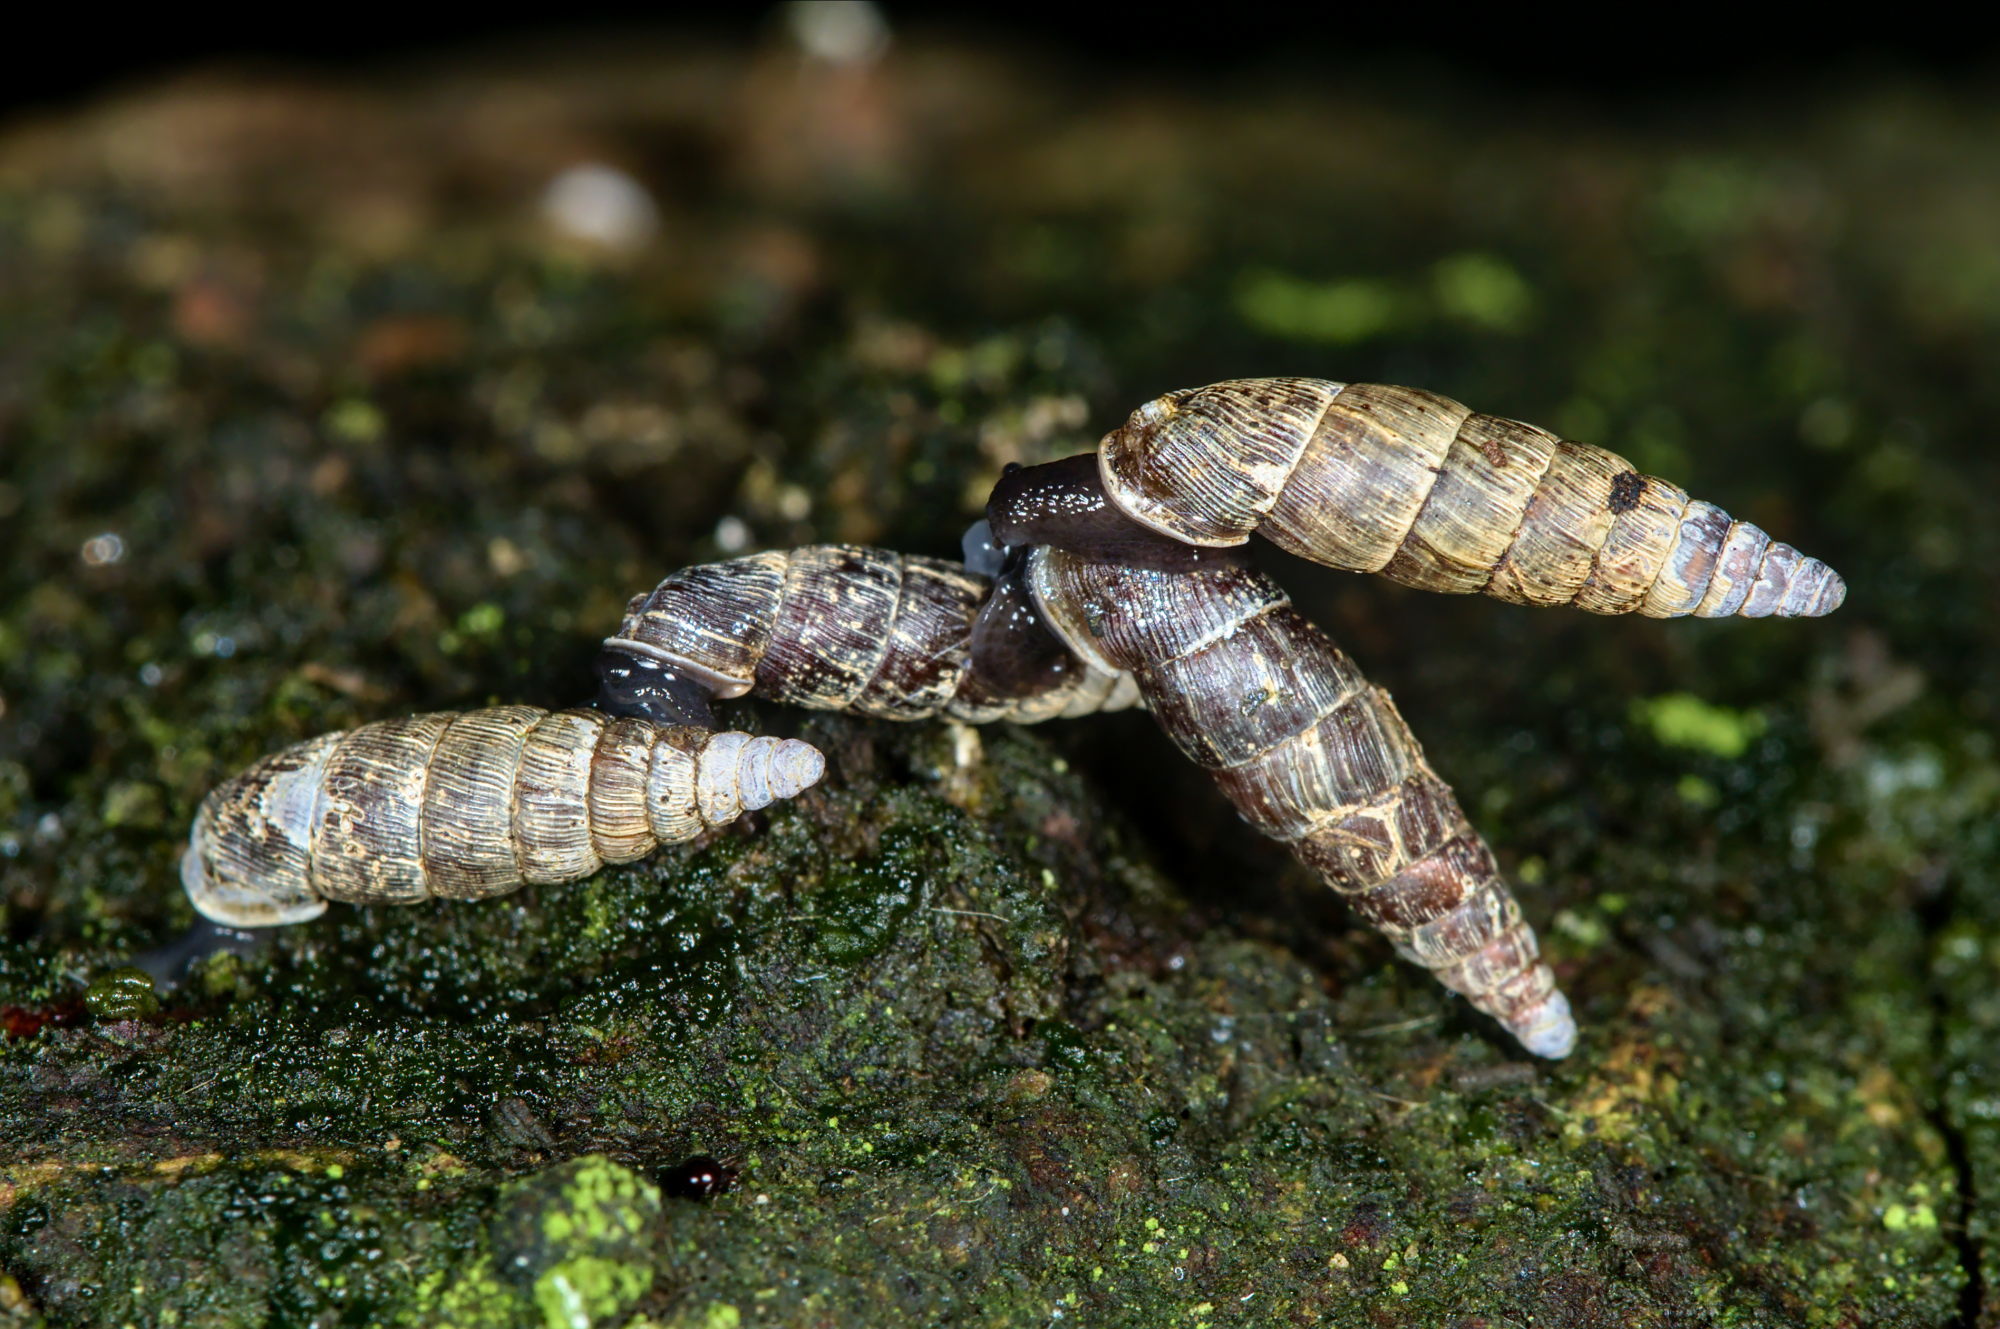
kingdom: Animalia
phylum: Mollusca
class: Gastropoda
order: Stylommatophora
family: Clausiliidae
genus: Clausilia
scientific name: Clausilia bidentata
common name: Two-toothed door snail
